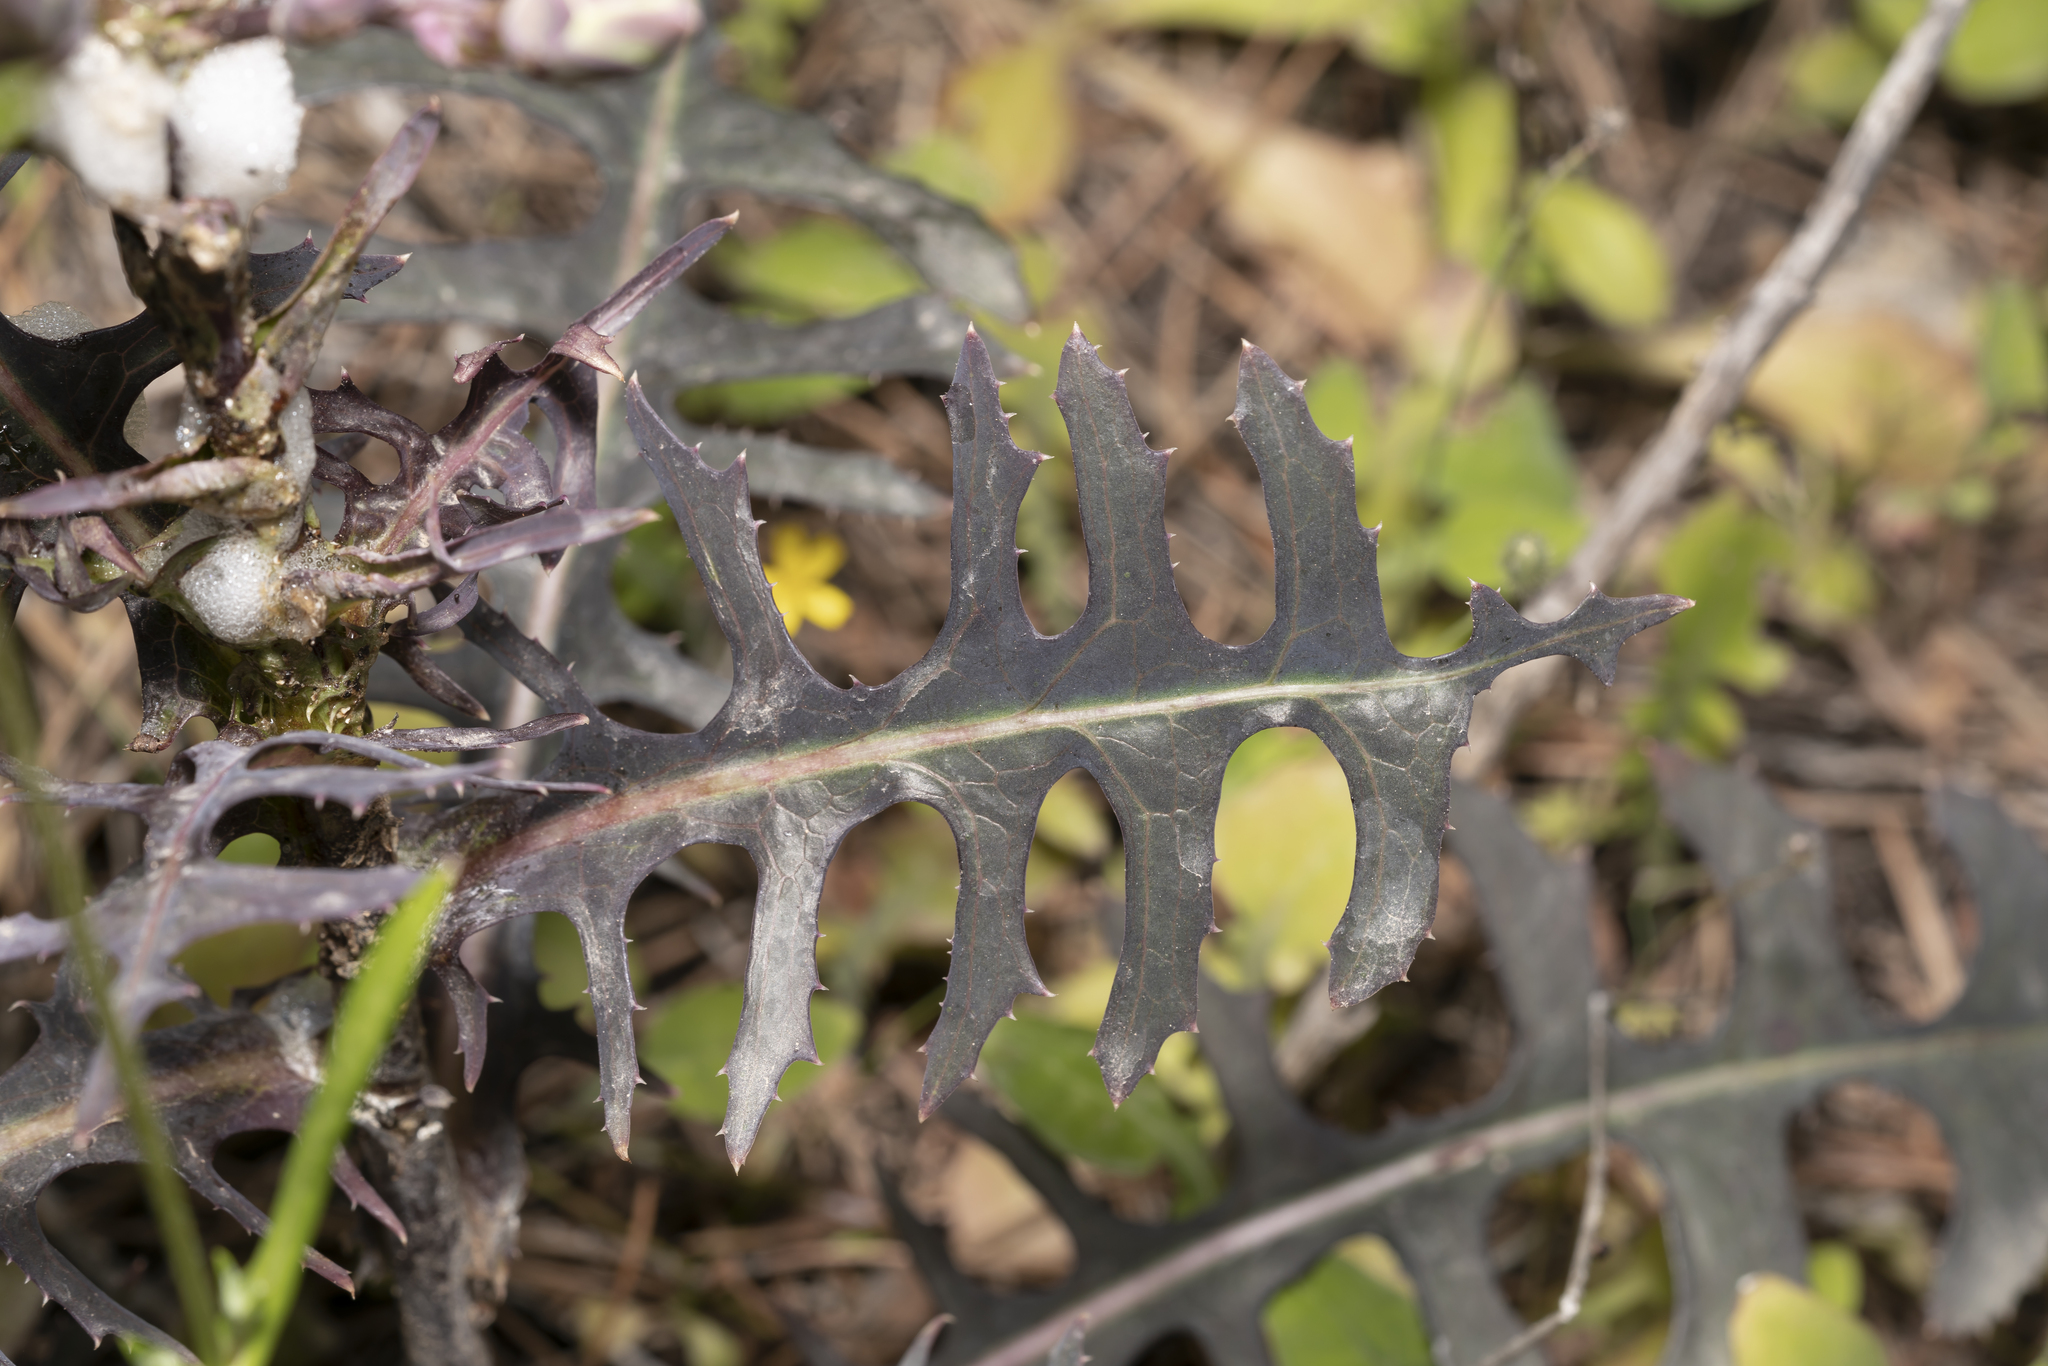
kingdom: Plantae
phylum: Tracheophyta
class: Magnoliopsida
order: Asterales
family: Asteraceae
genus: Lactuca
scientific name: Lactuca tuberosa
